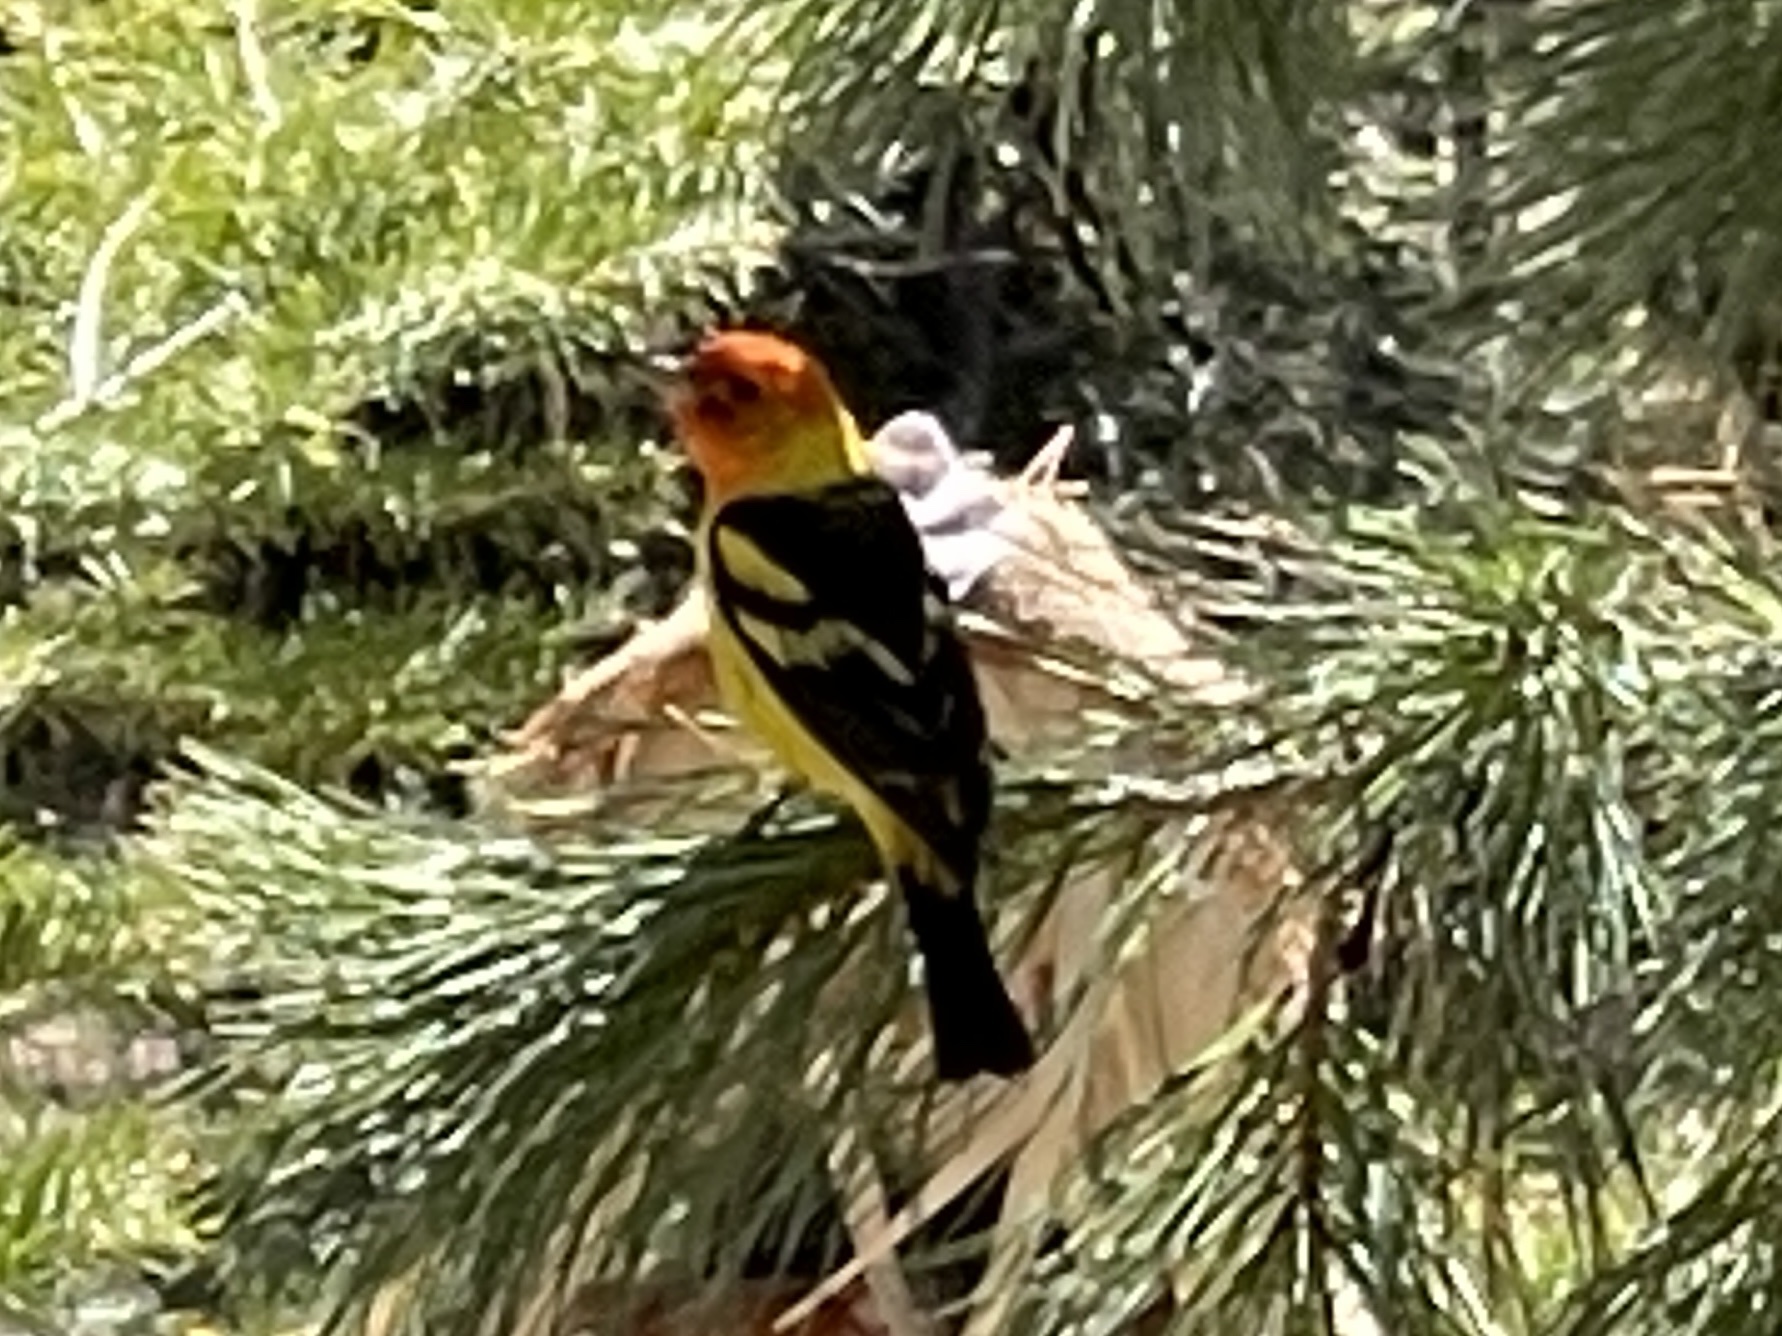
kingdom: Animalia
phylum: Chordata
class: Aves
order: Passeriformes
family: Cardinalidae
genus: Piranga
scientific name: Piranga ludoviciana
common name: Western tanager
